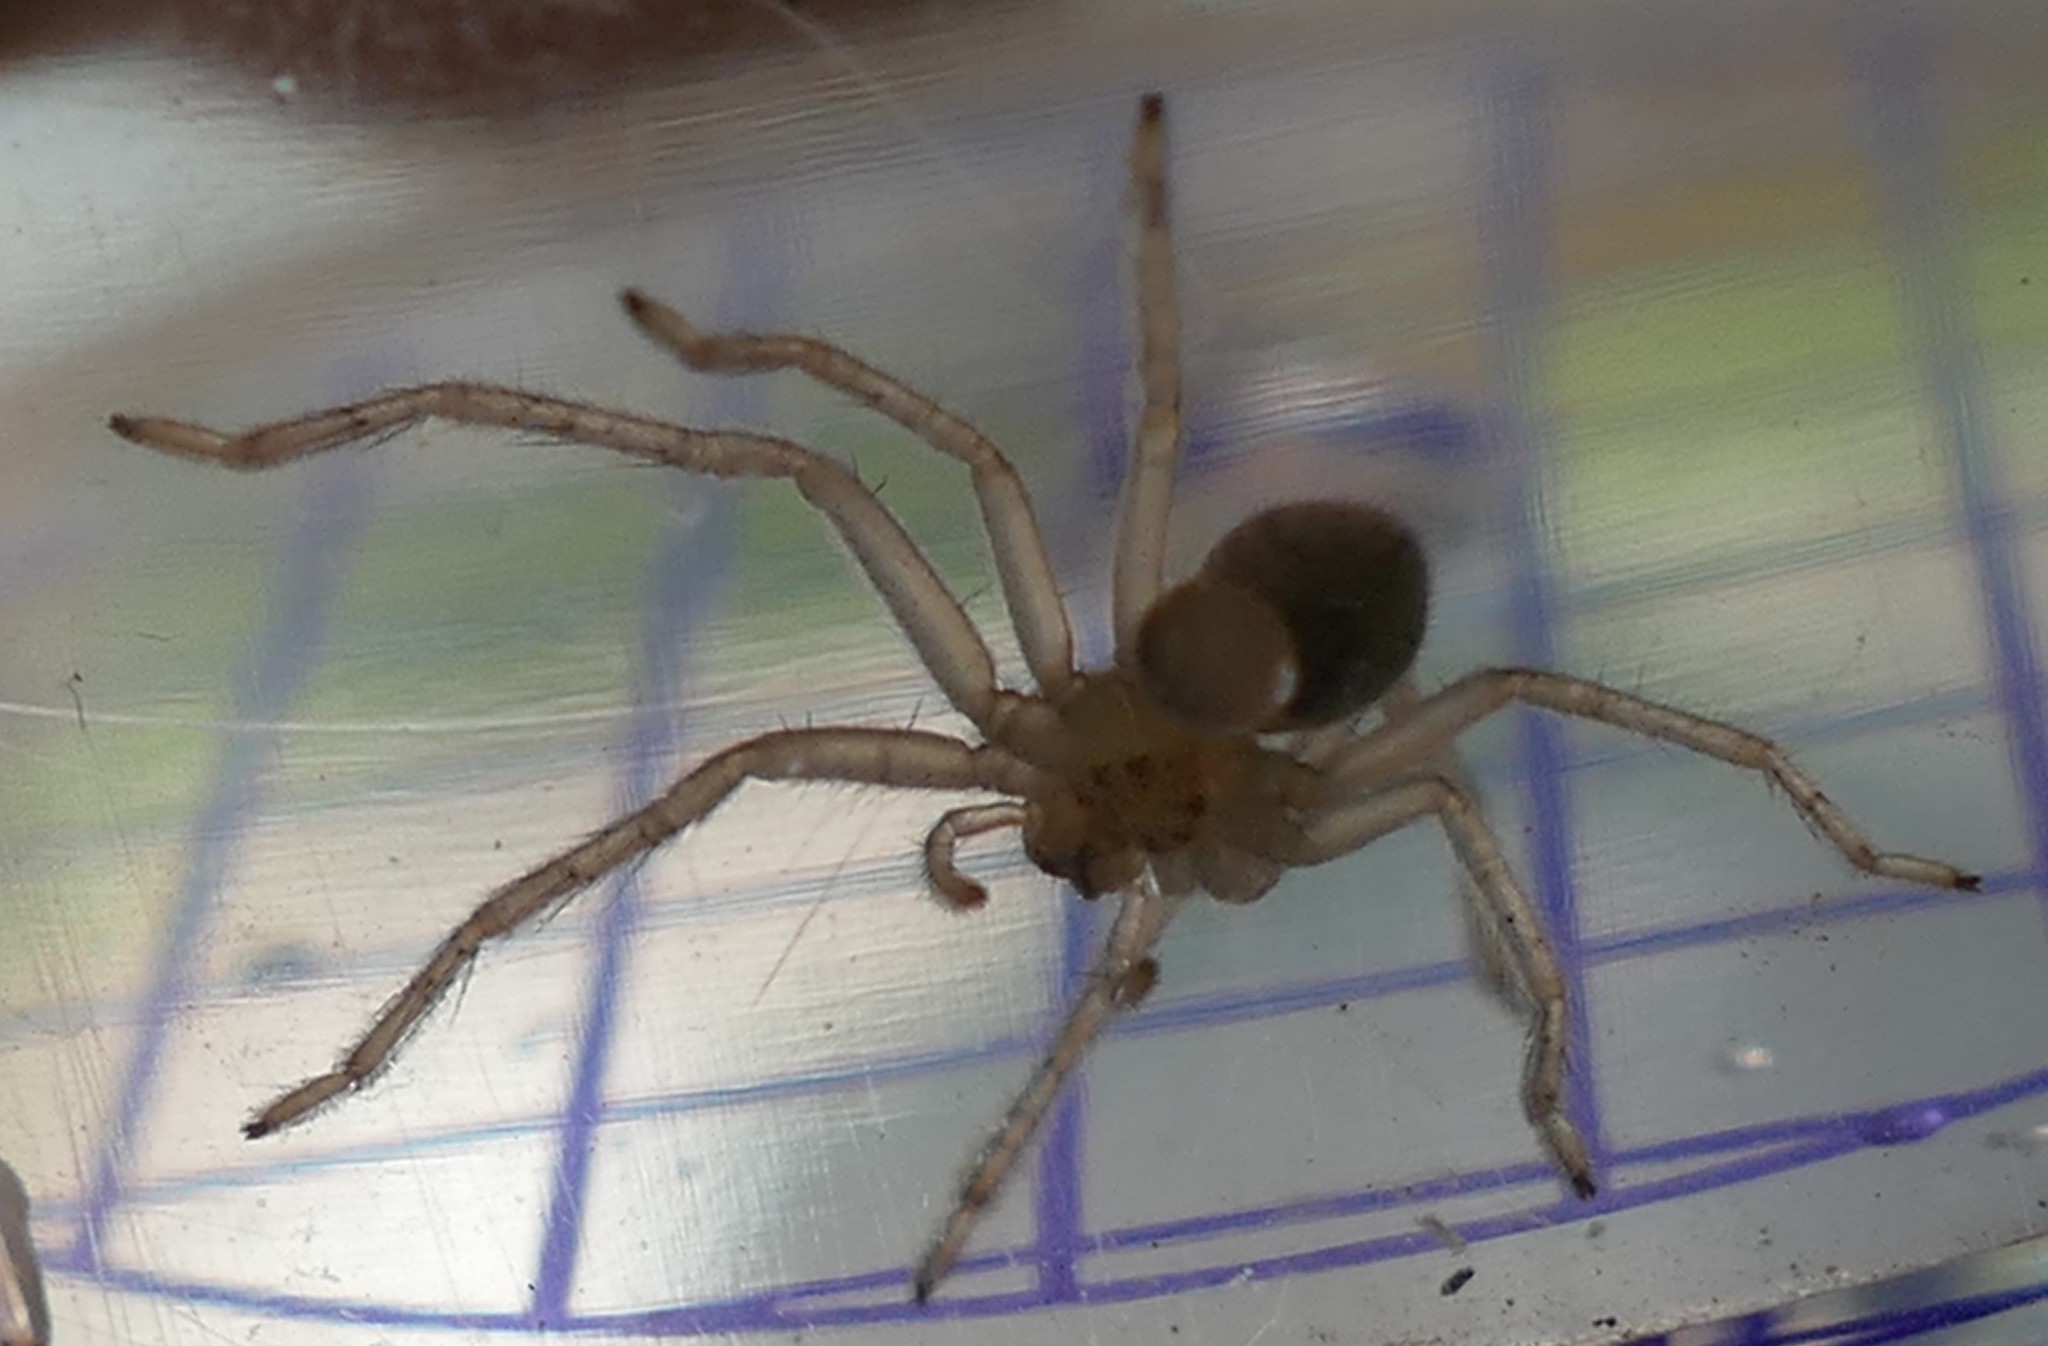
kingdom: Animalia
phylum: Arthropoda
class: Arachnida
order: Araneae
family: Sparassidae
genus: Olios
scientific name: Olios argelasius
